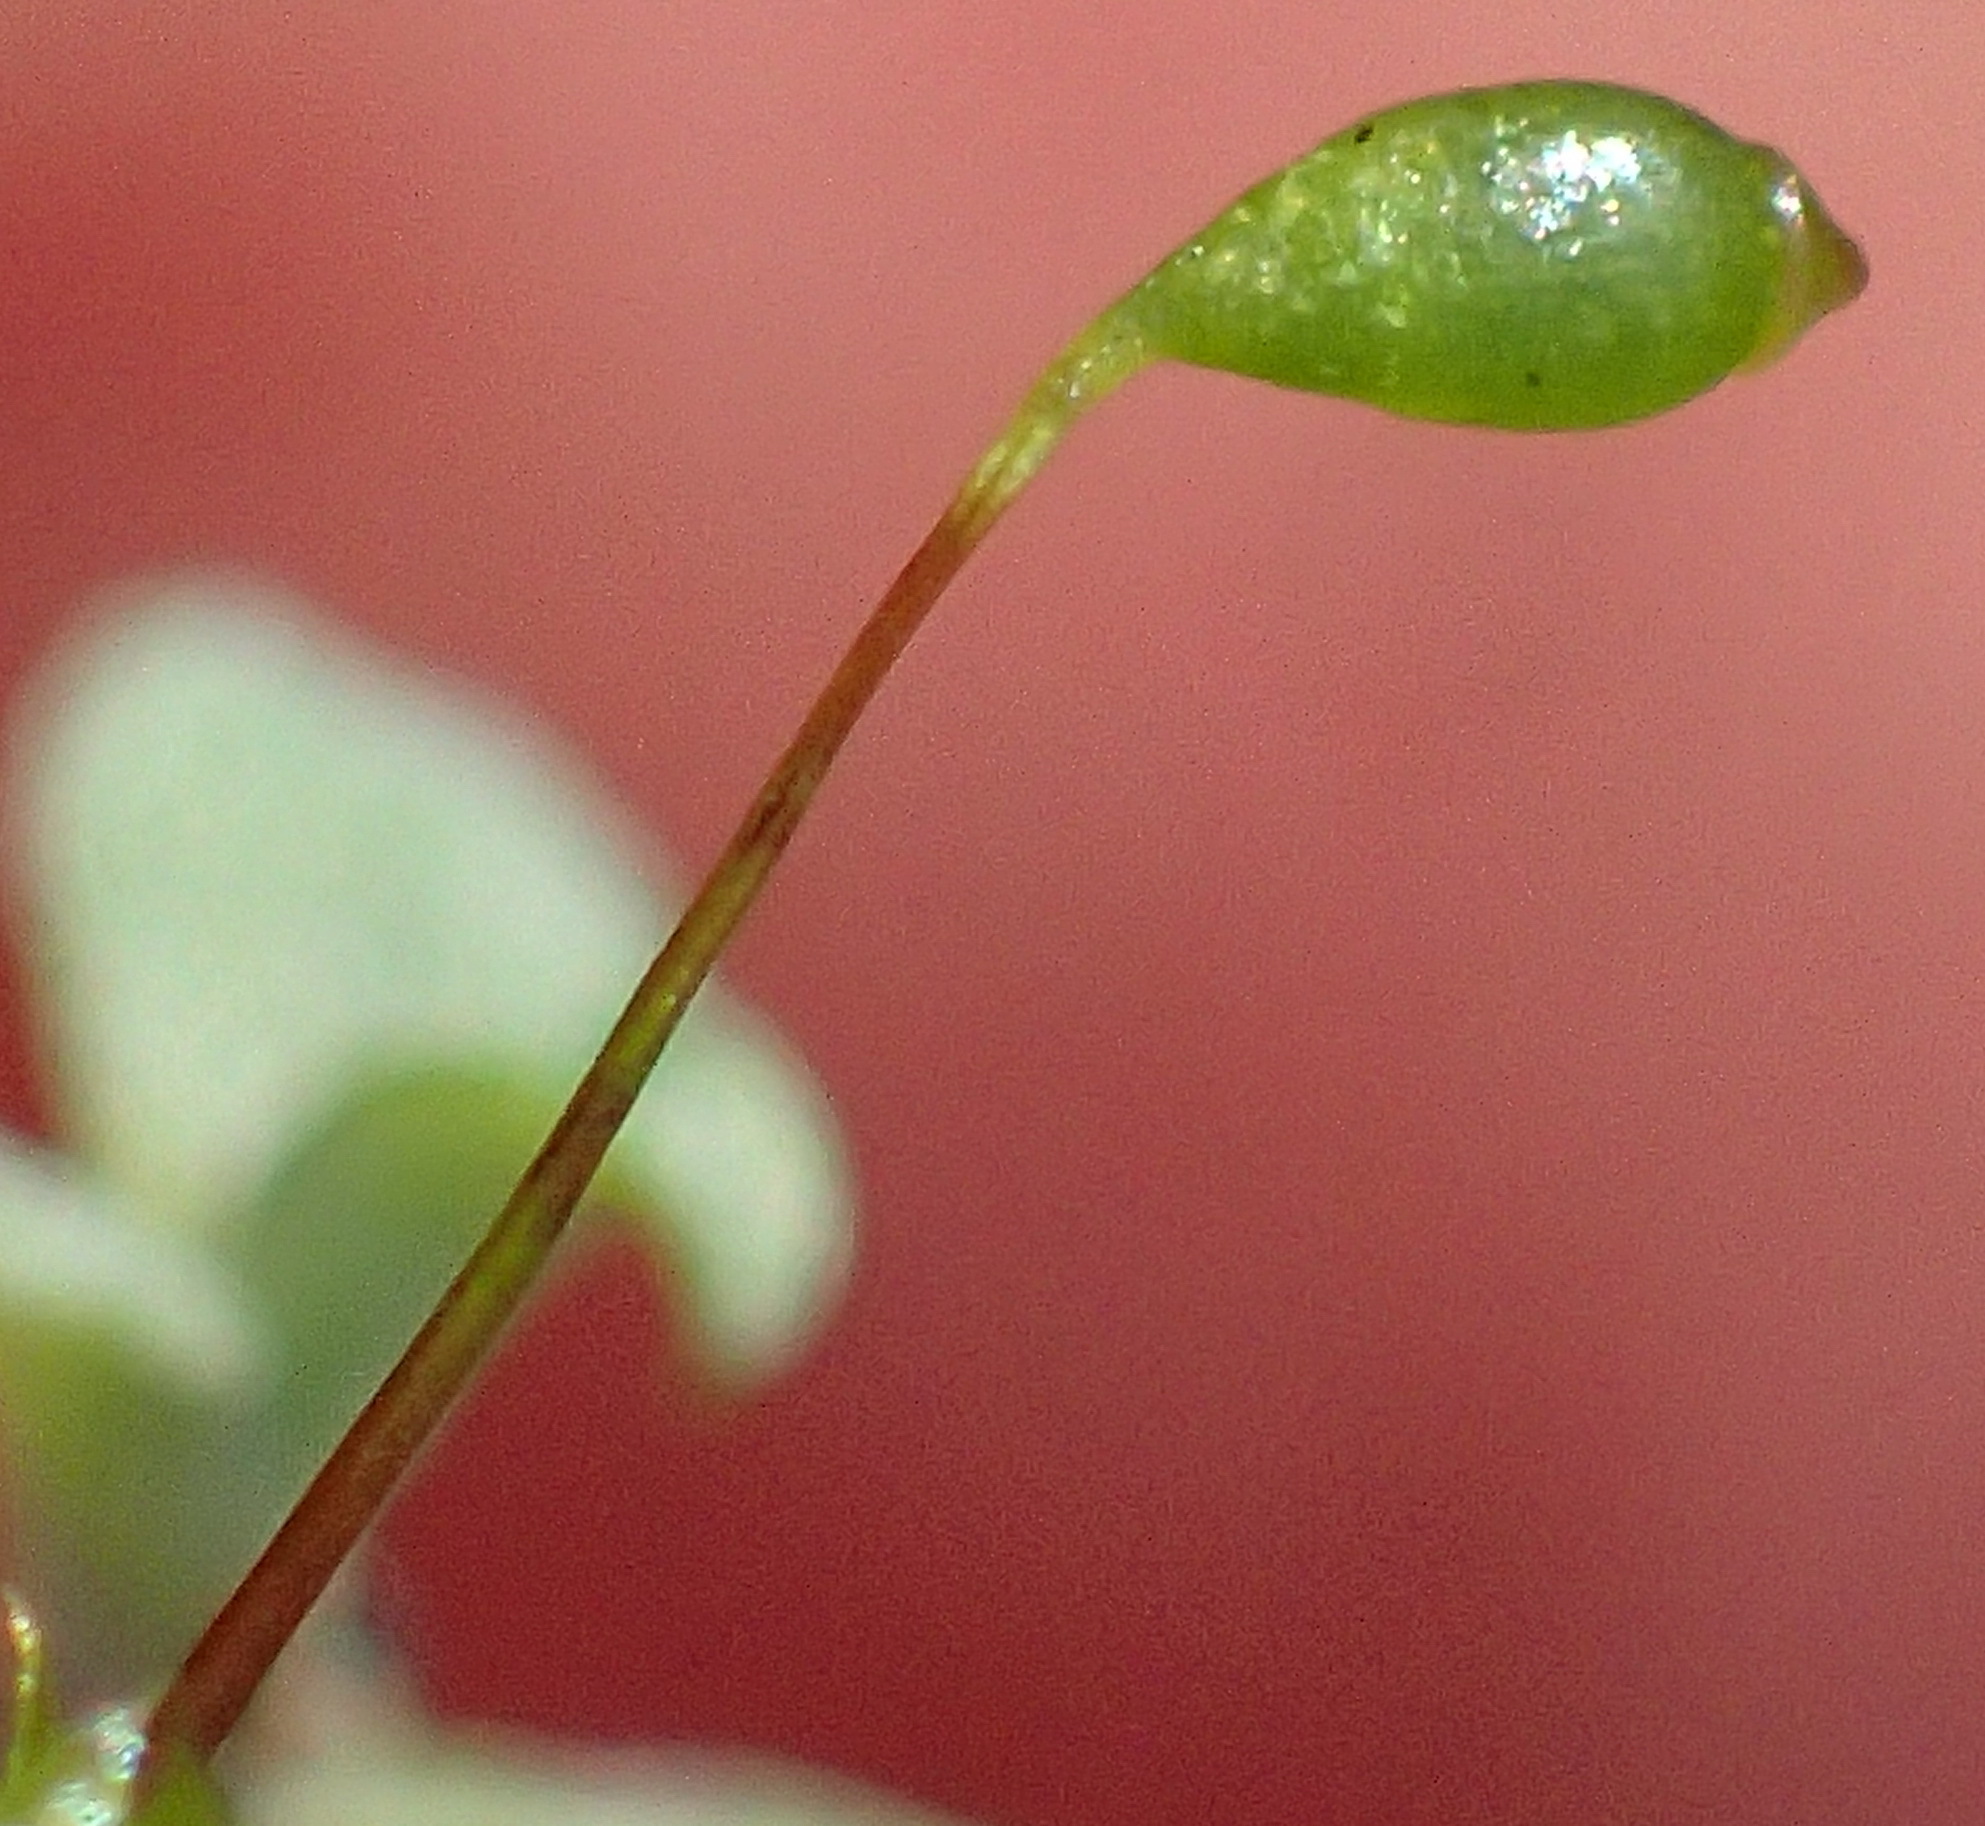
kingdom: Plantae
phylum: Bryophyta
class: Bryopsida
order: Bryales
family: Bryaceae
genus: Rosulabryum
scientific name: Rosulabryum canariense
